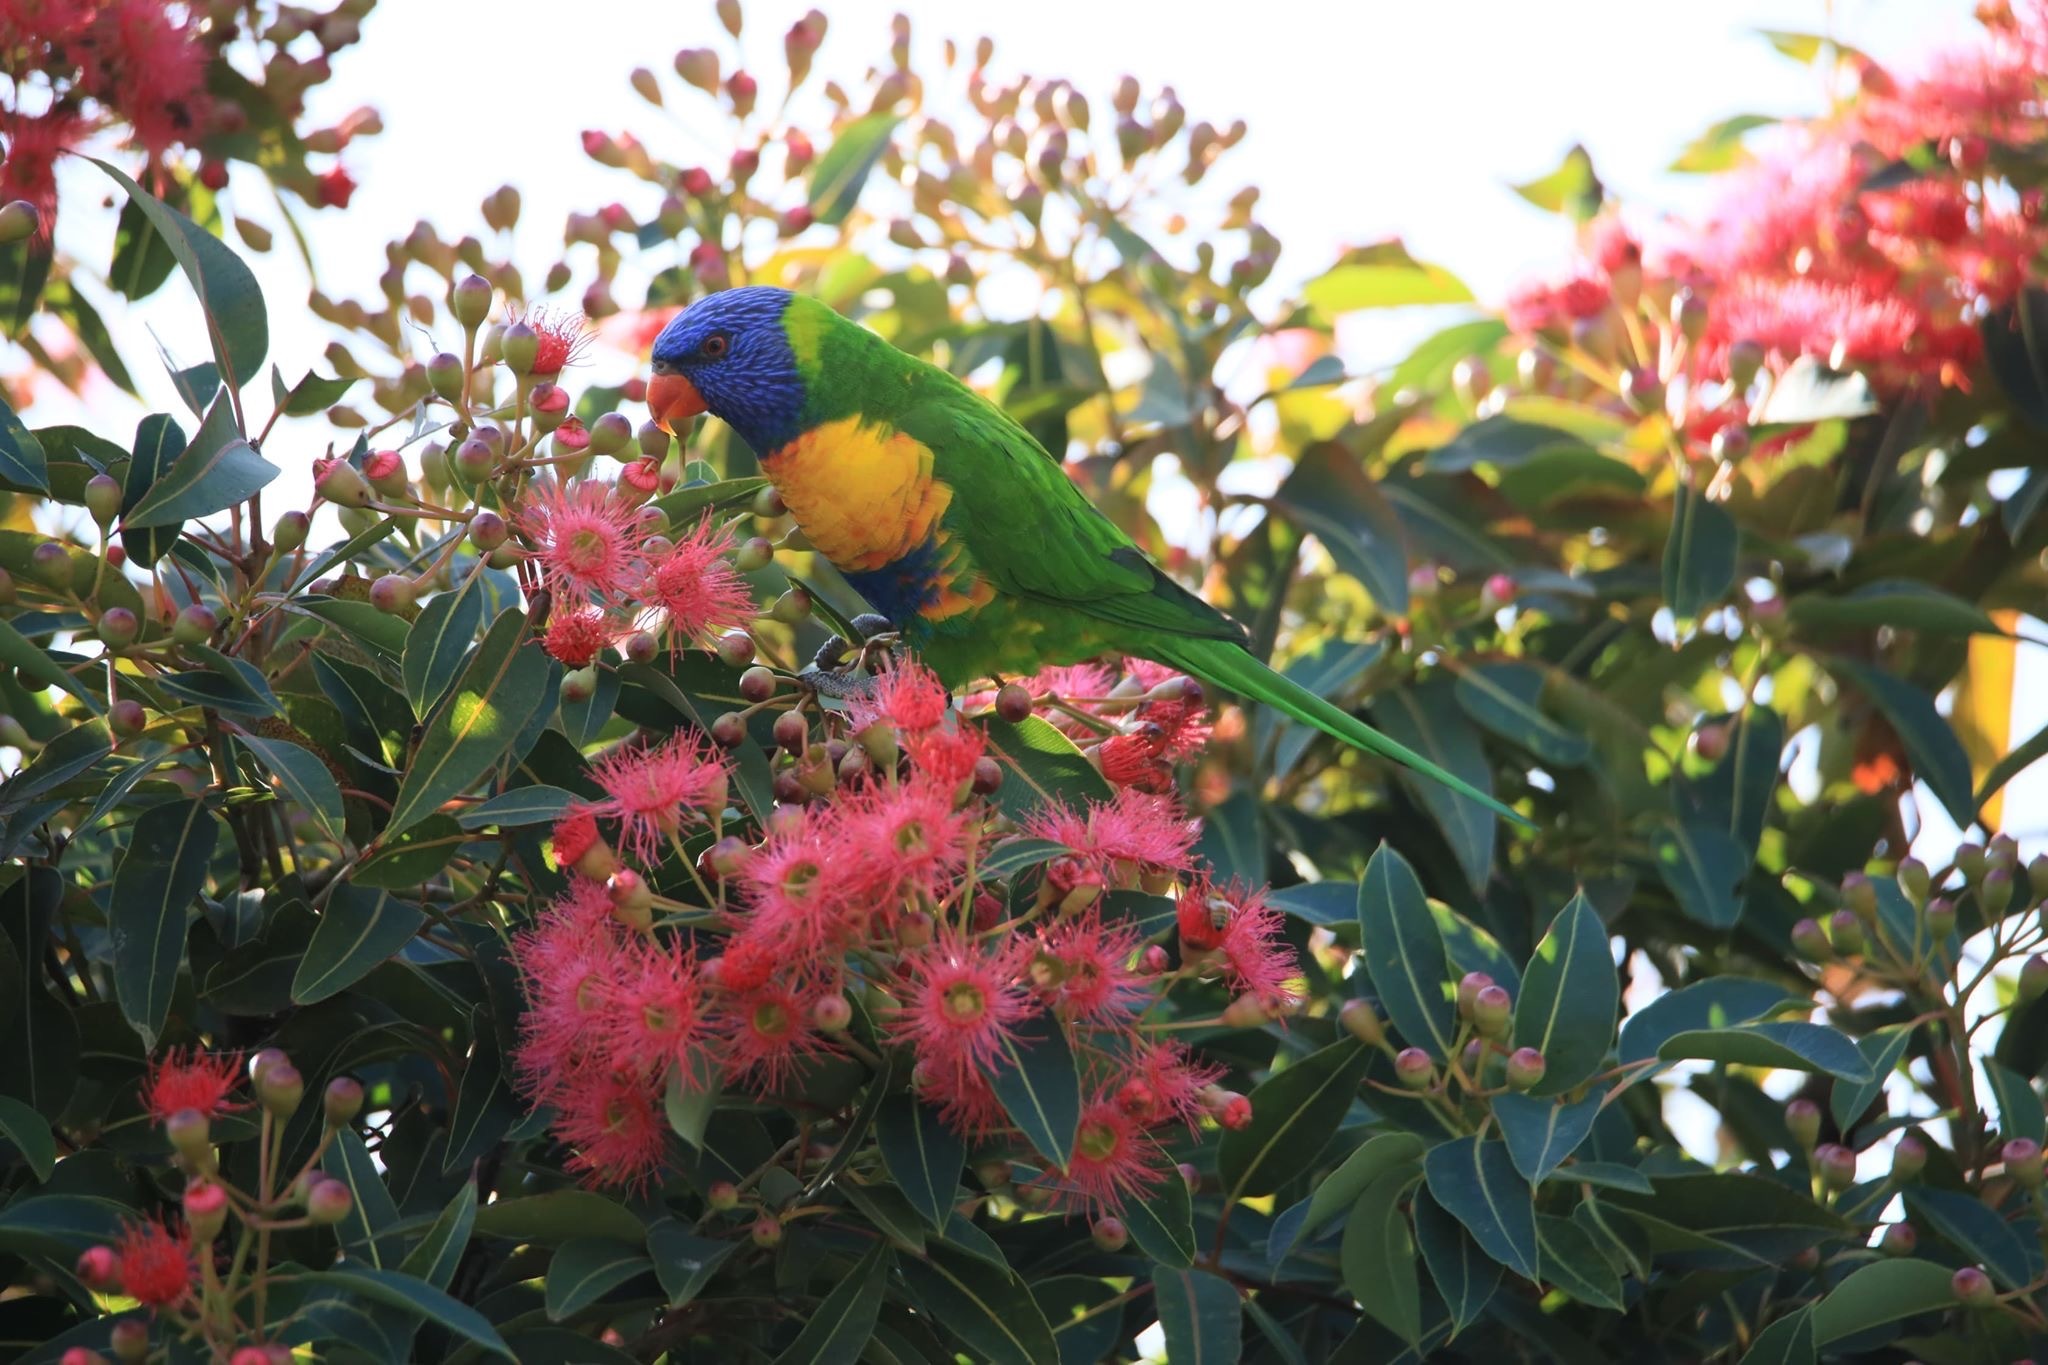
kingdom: Animalia
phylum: Chordata
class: Aves
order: Psittaciformes
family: Psittacidae
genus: Trichoglossus
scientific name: Trichoglossus haematodus
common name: Coconut lorikeet
